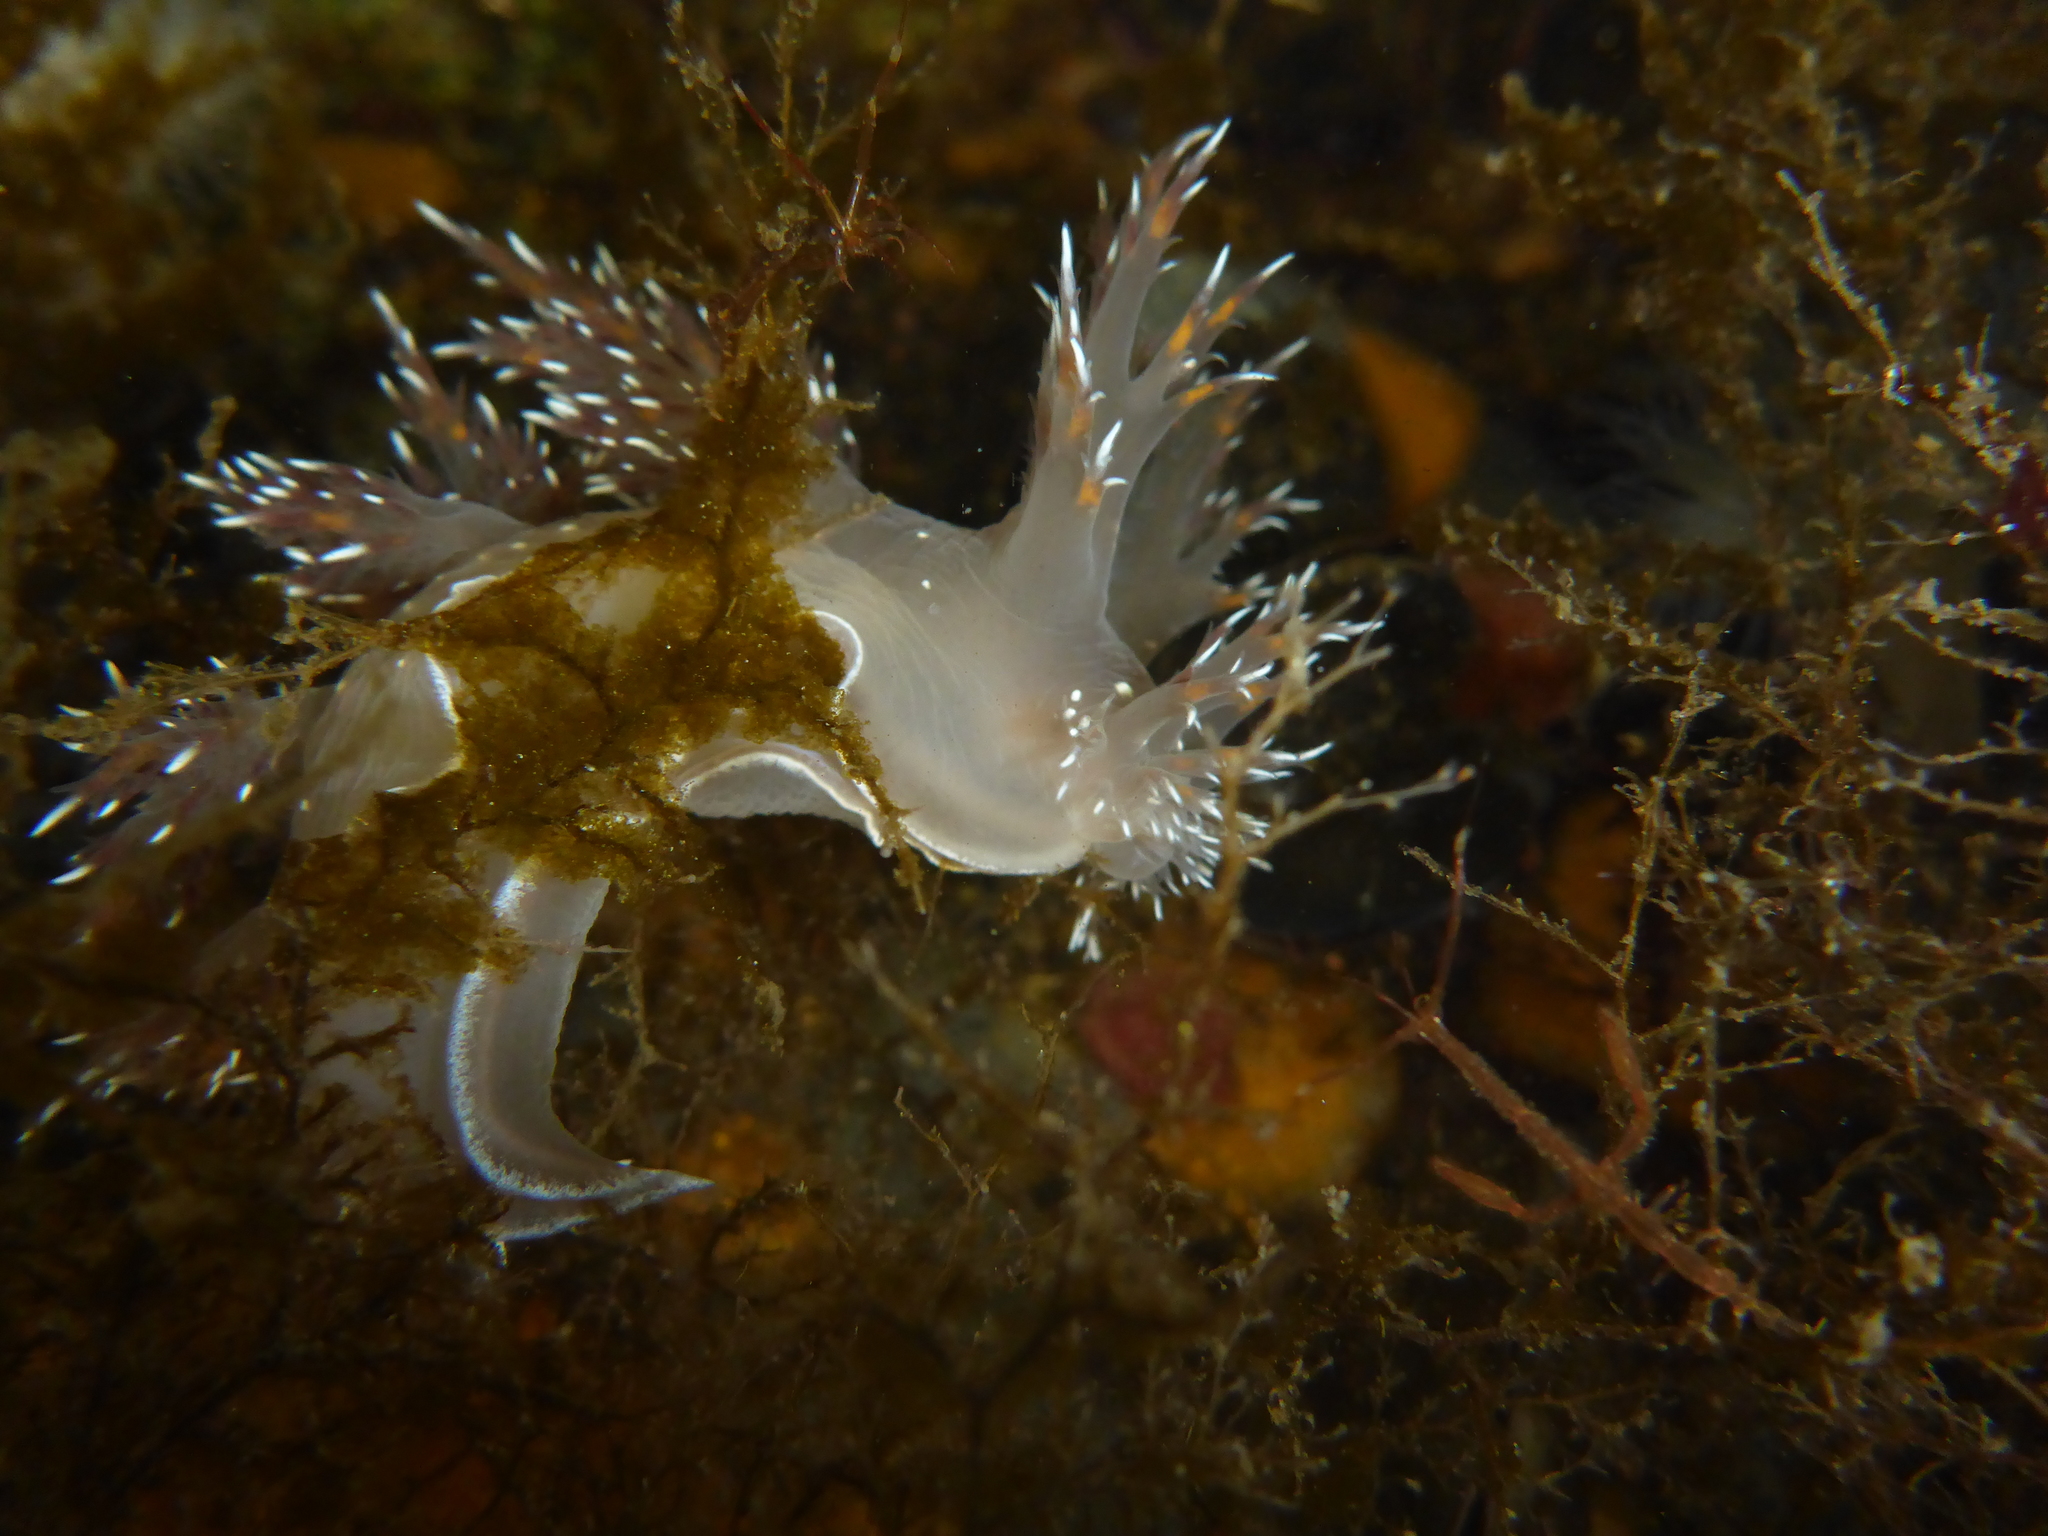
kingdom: Animalia
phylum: Mollusca
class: Gastropoda
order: Nudibranchia
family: Dendronotidae
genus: Dendronotus
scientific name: Dendronotus iris
